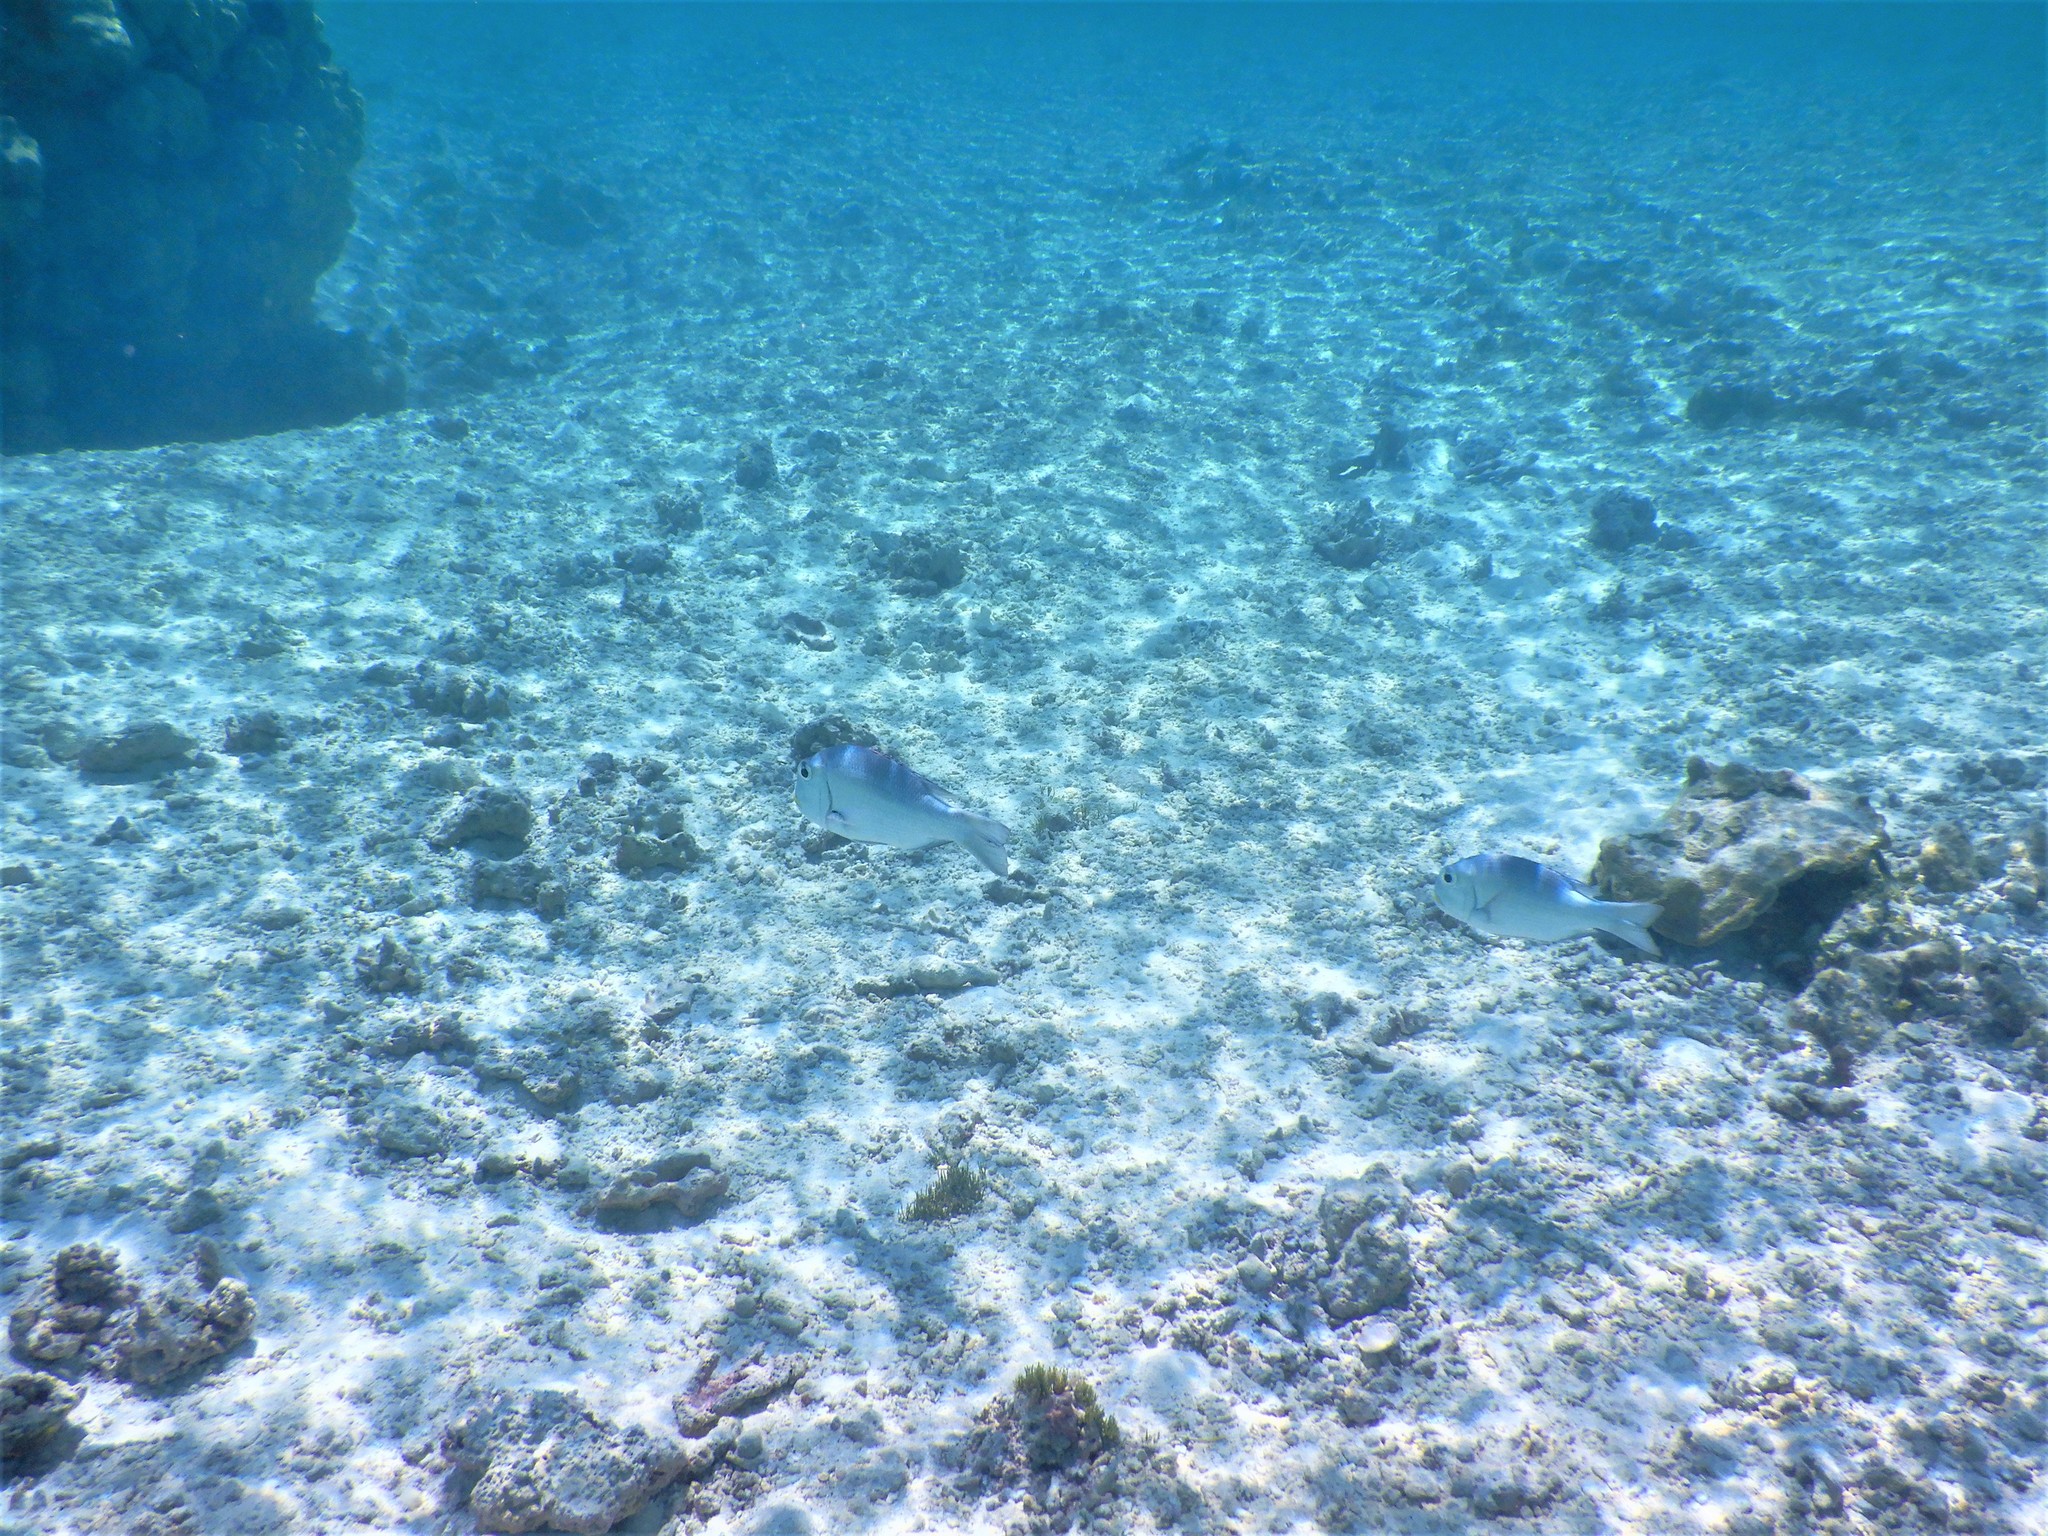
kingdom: Animalia
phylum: Chordata
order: Perciformes
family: Lethrinidae
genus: Monotaxis
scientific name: Monotaxis grandoculis
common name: Bigeye emperor
